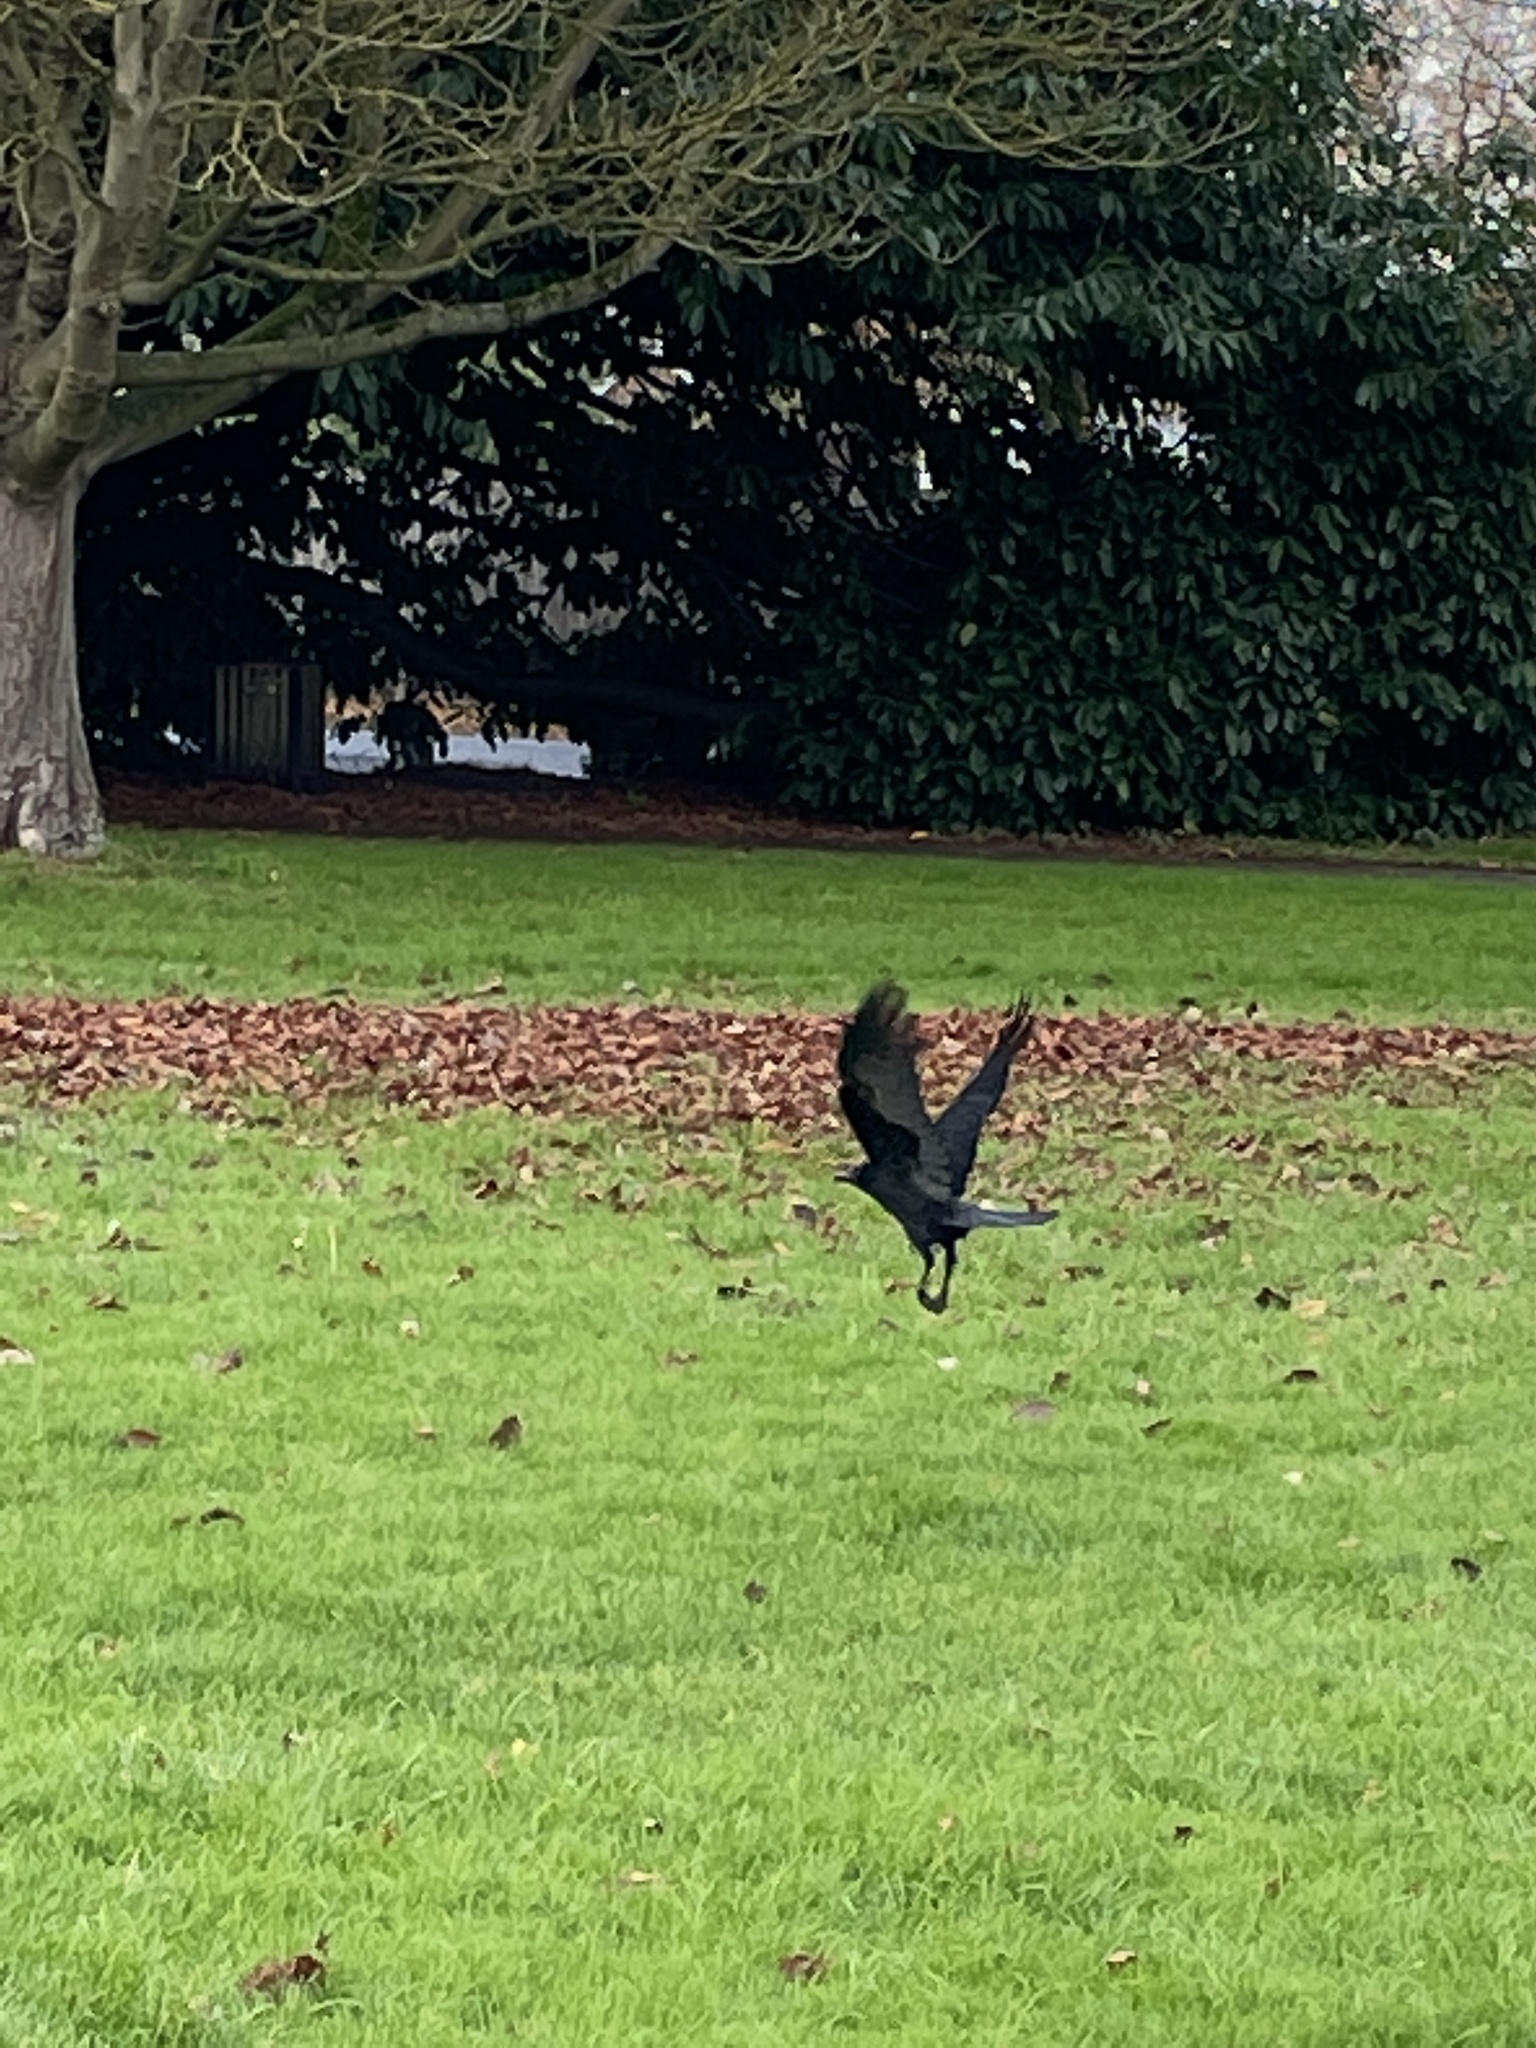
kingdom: Animalia
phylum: Chordata
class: Aves
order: Passeriformes
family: Corvidae
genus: Corvus
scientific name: Corvus corone
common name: Carrion crow
